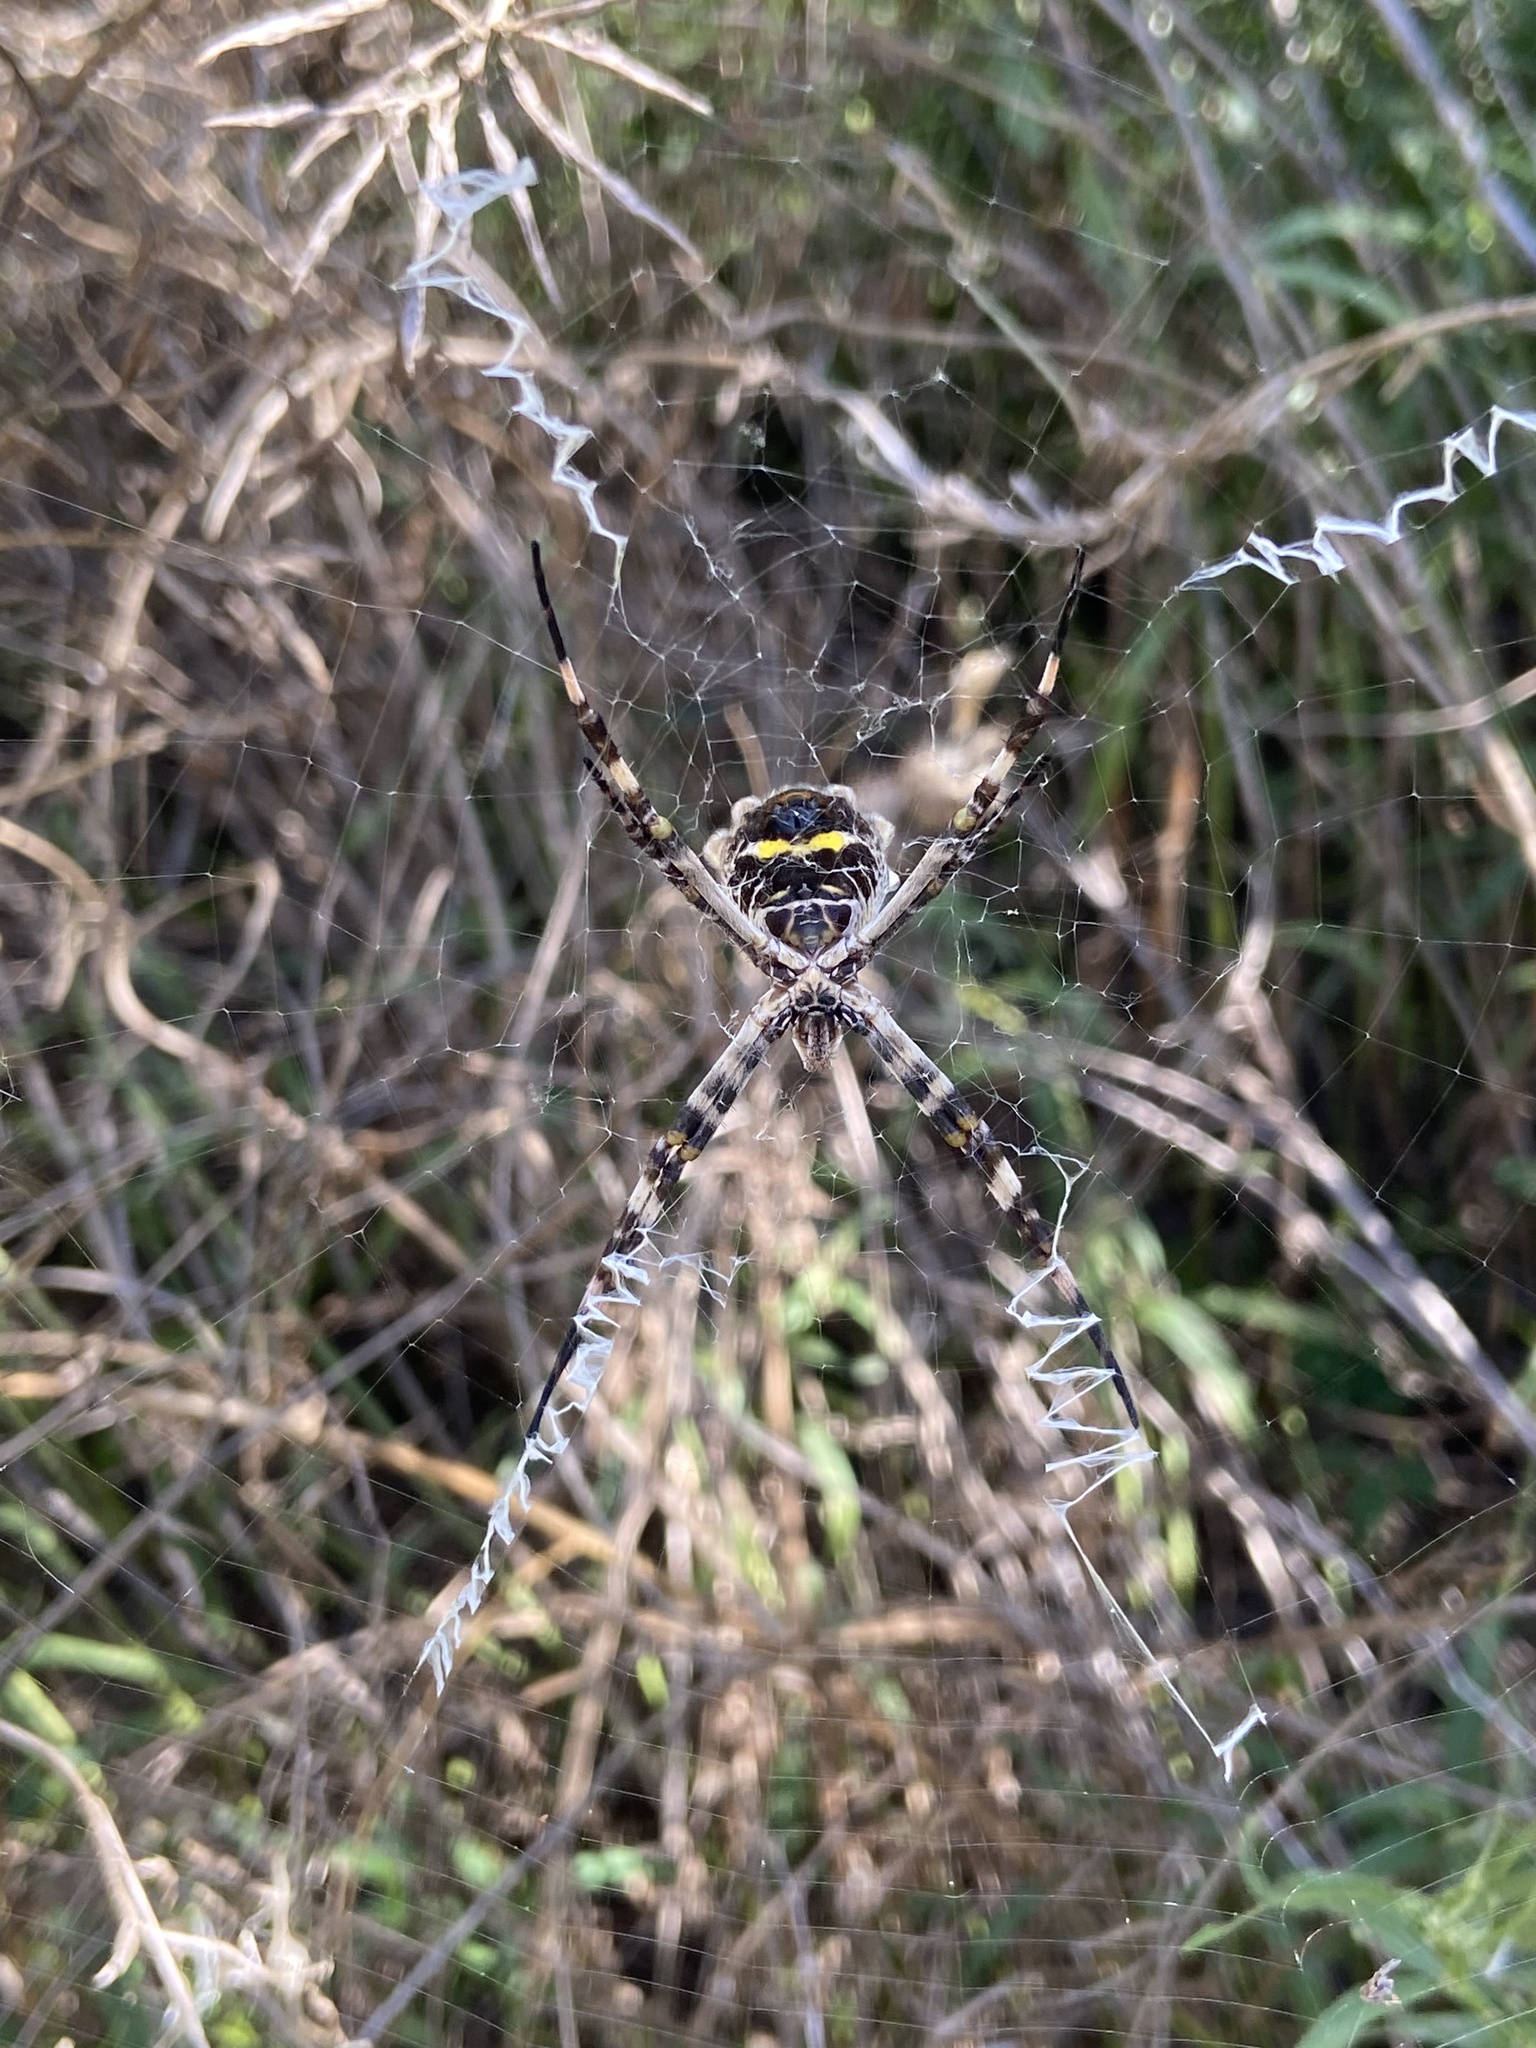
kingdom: Animalia
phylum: Arthropoda
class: Arachnida
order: Araneae
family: Araneidae
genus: Argiope
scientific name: Argiope argentata
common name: Orb weavers
